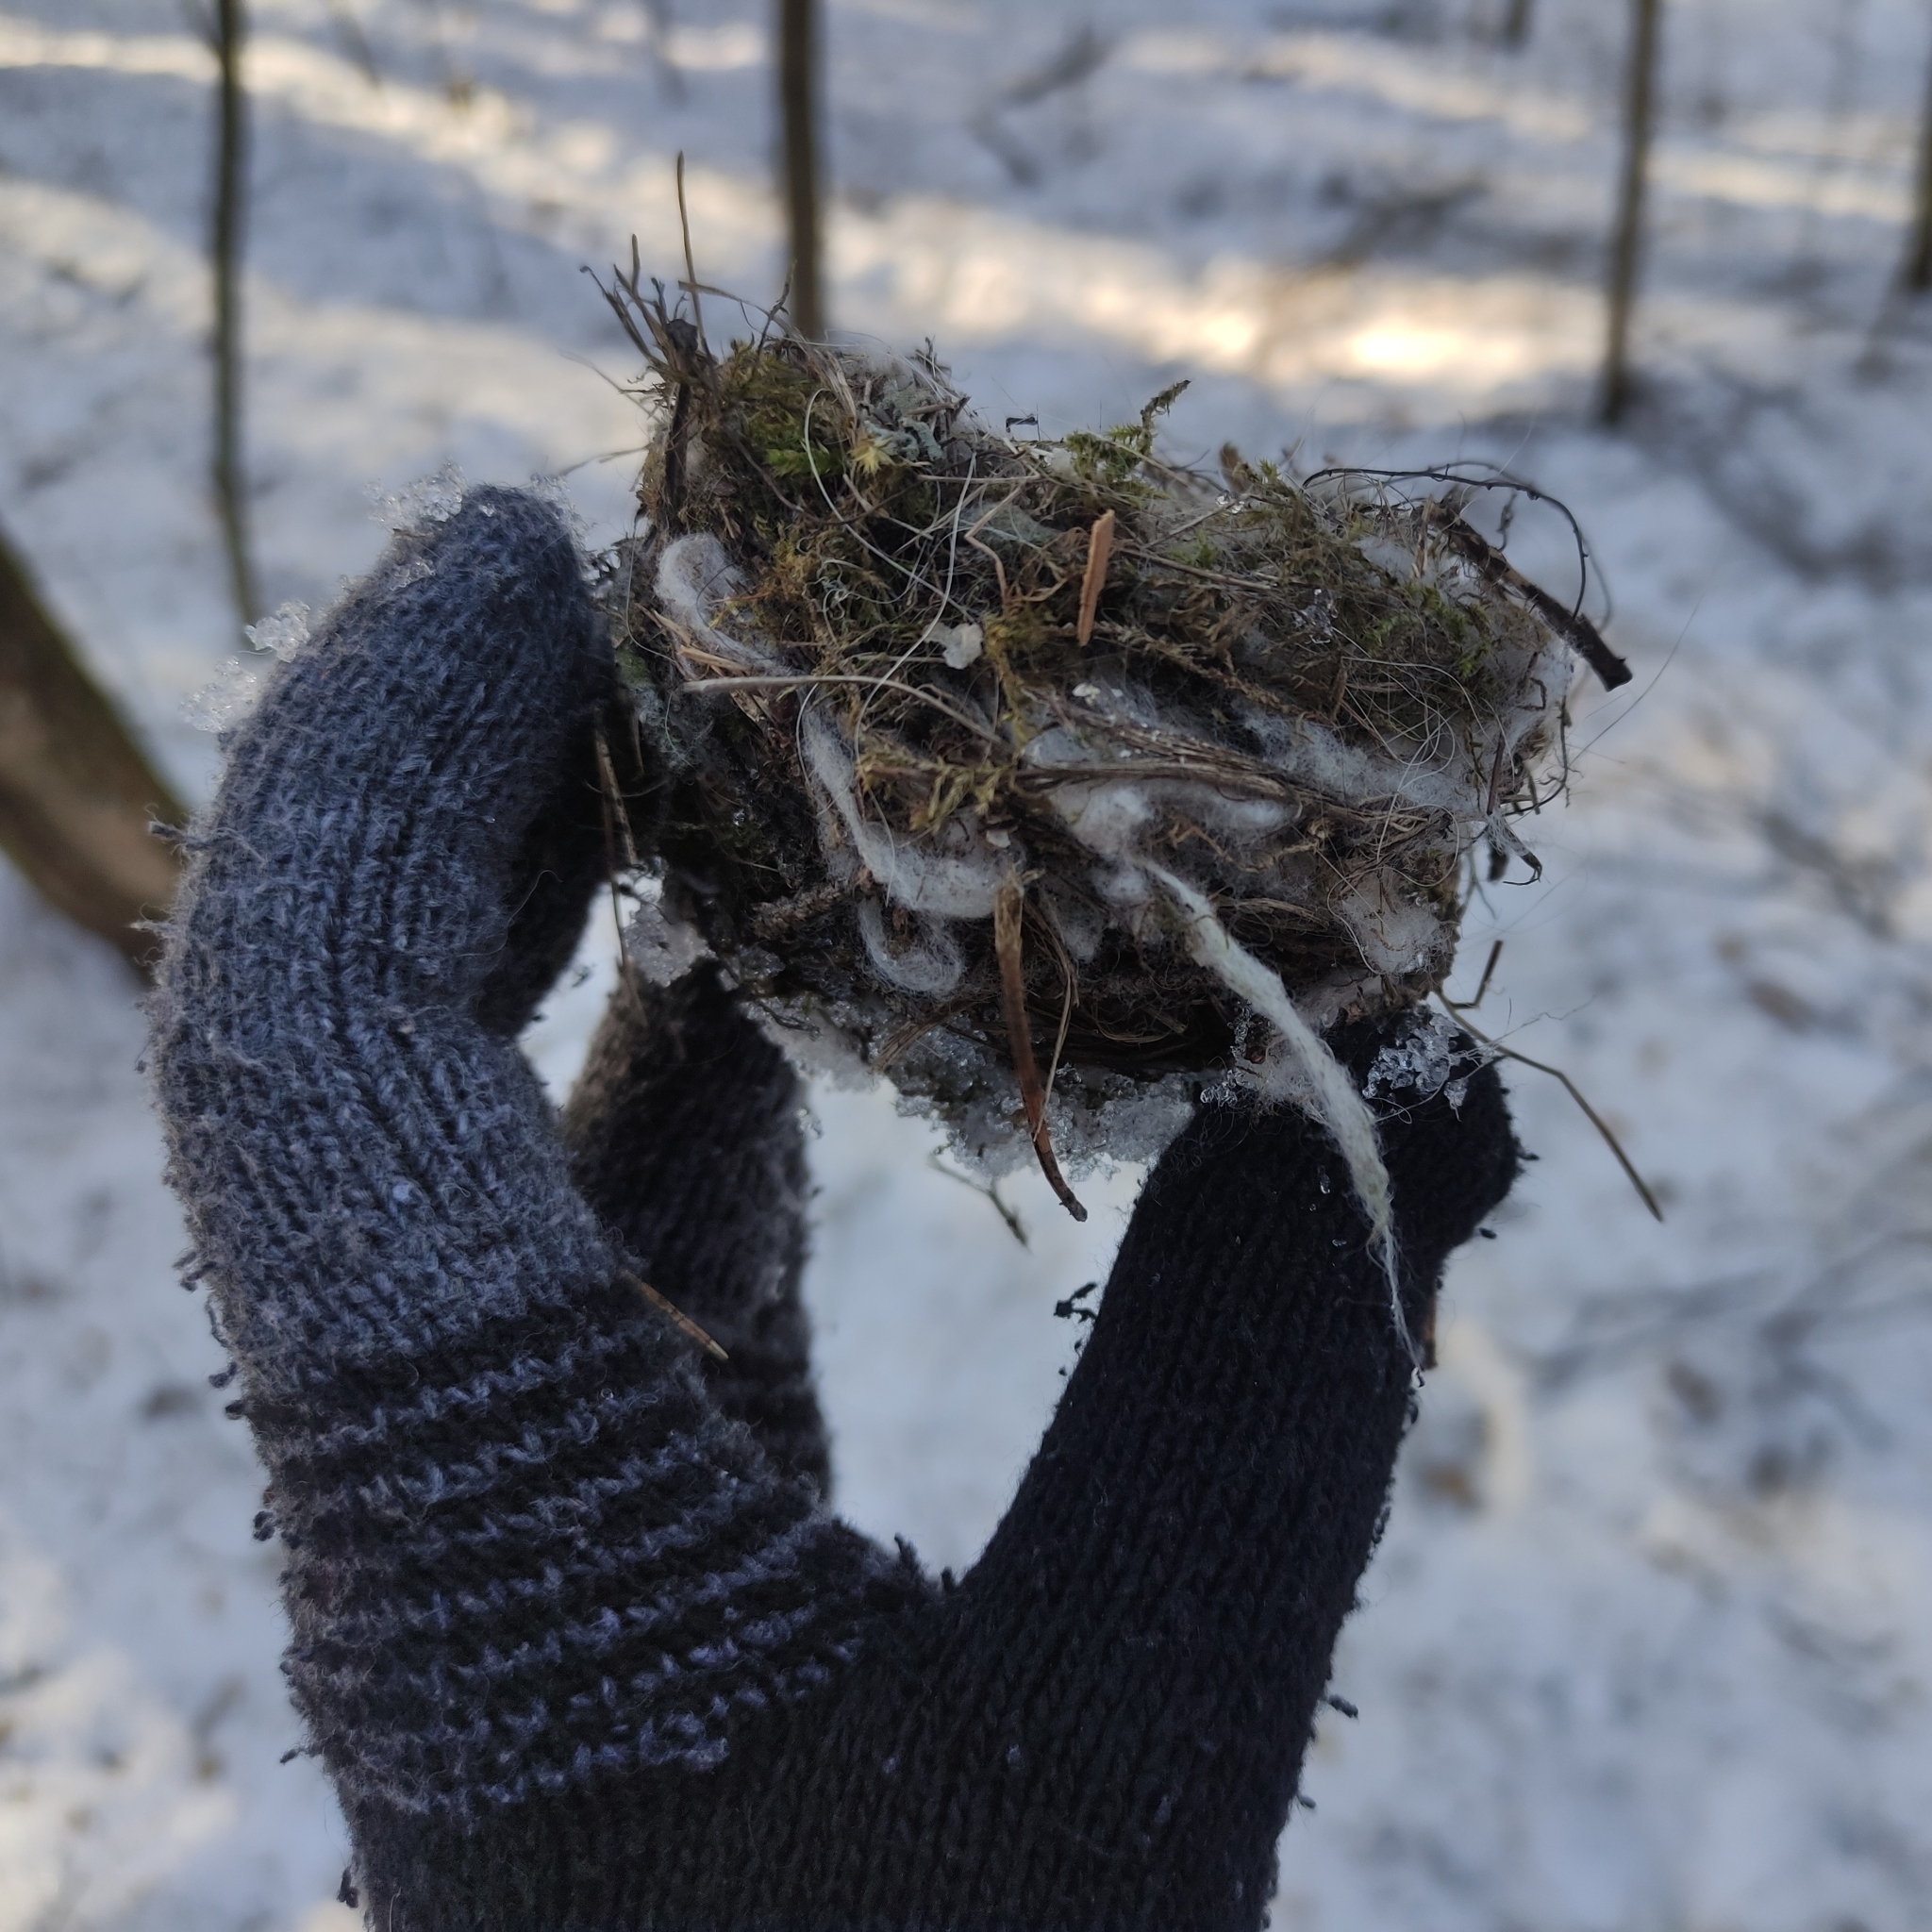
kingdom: Animalia
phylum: Chordata
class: Aves
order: Passeriformes
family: Fringillidae
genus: Fringilla
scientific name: Fringilla coelebs
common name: Common chaffinch
